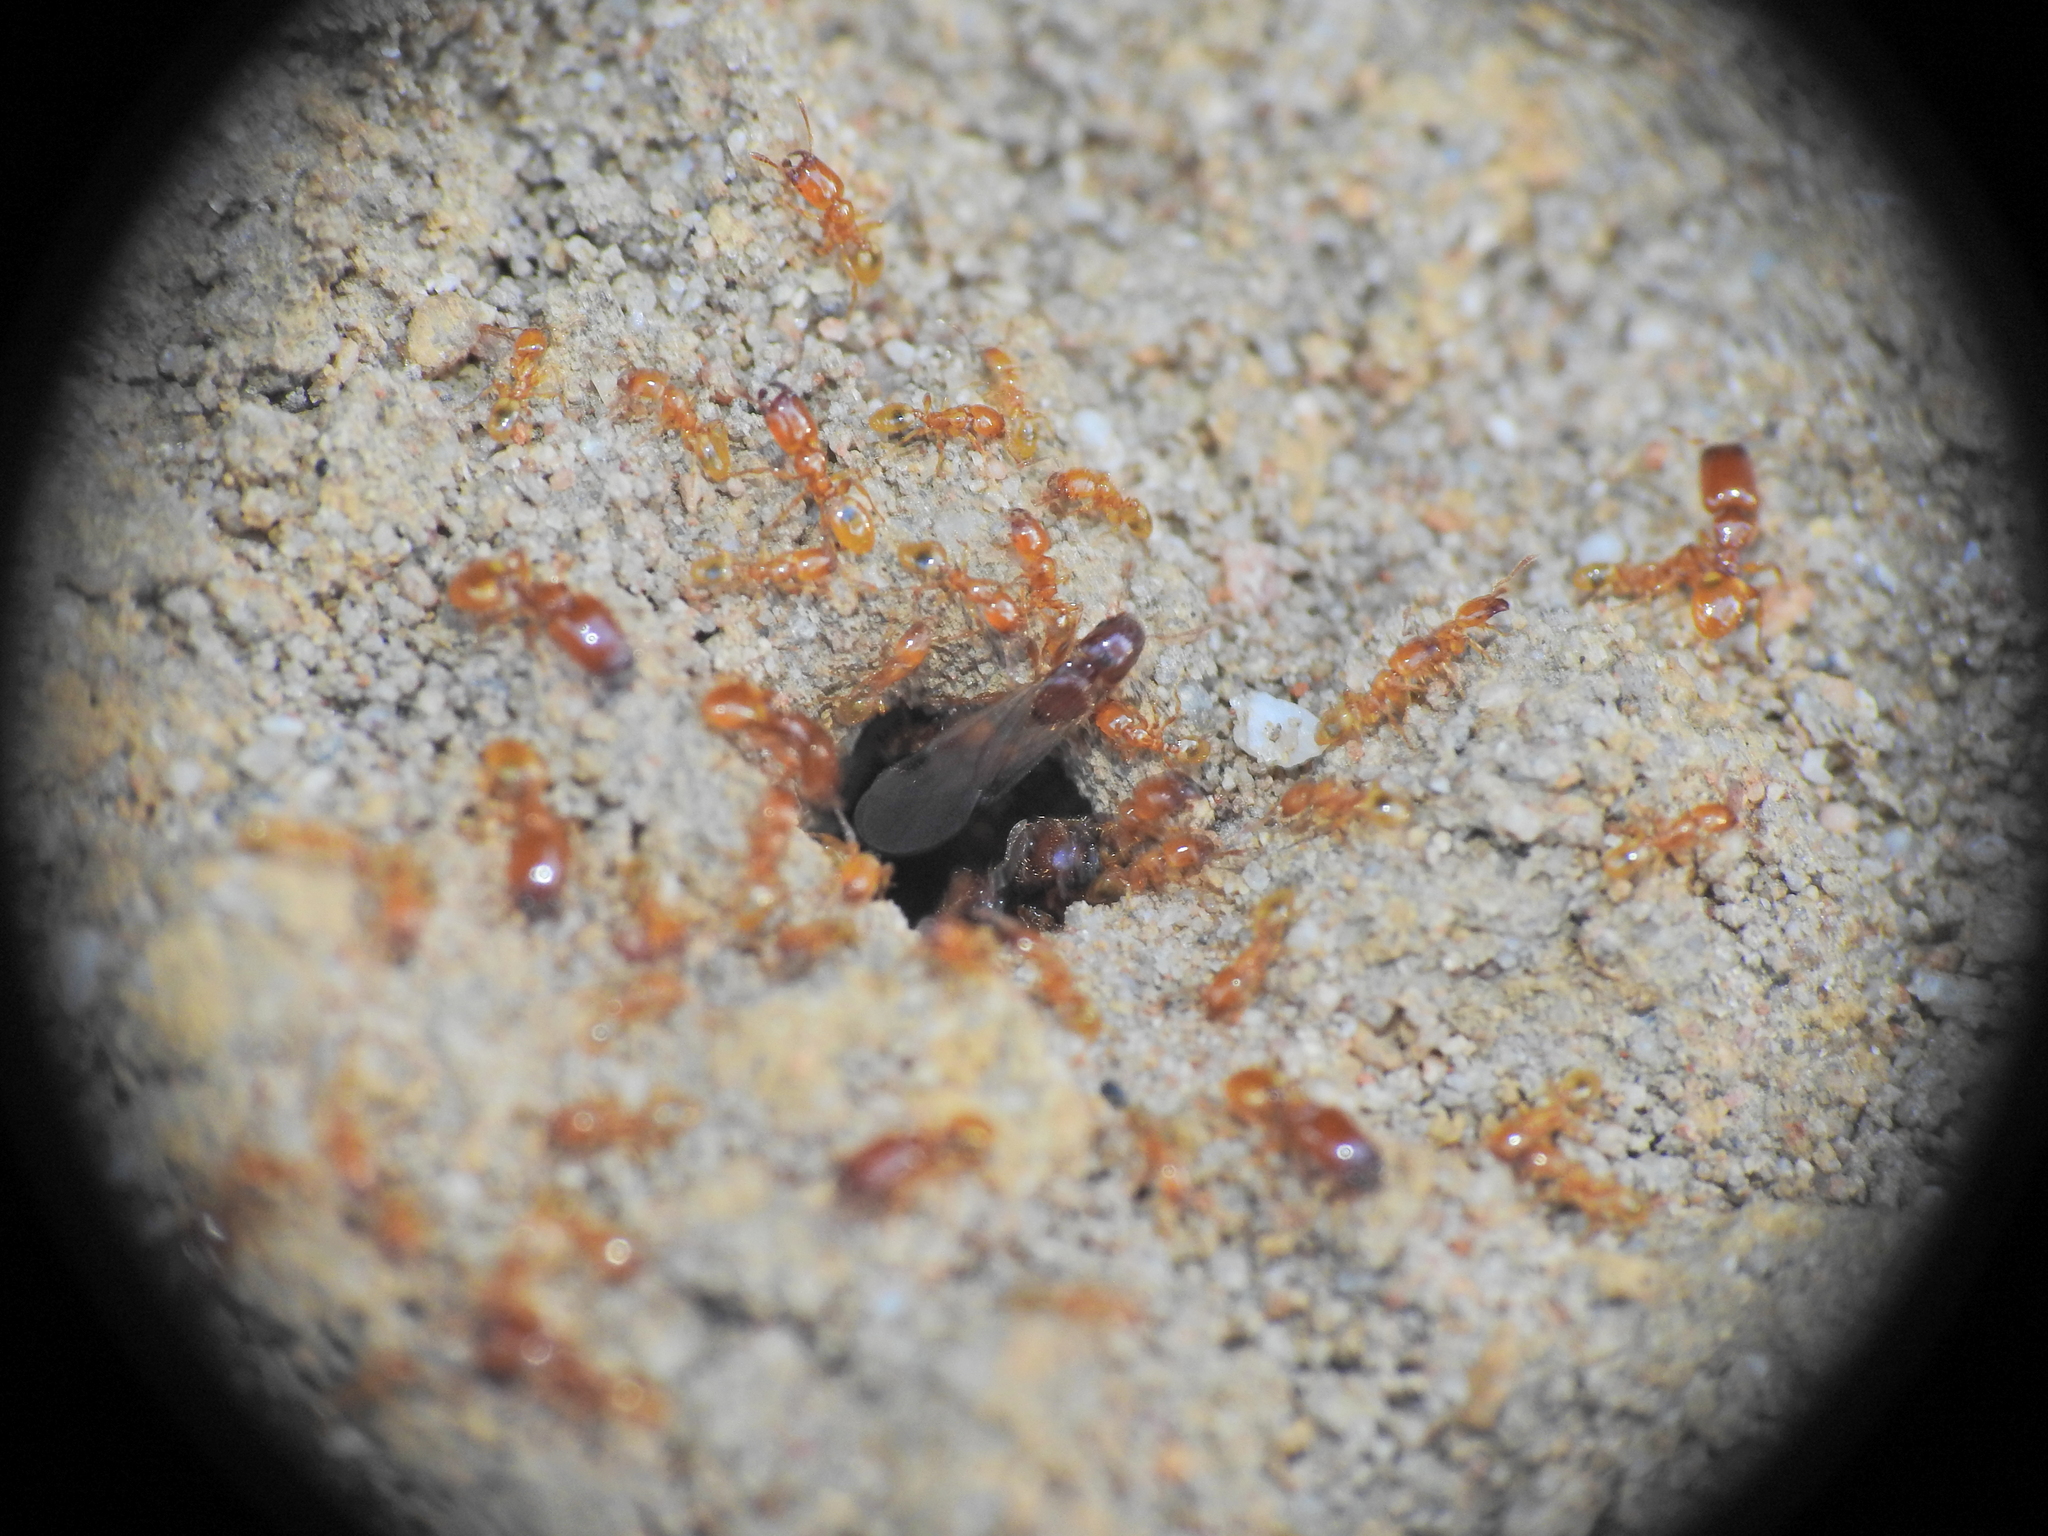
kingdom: Animalia
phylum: Arthropoda
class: Insecta
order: Hymenoptera
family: Formicidae
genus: Pheidole
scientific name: Pheidole
